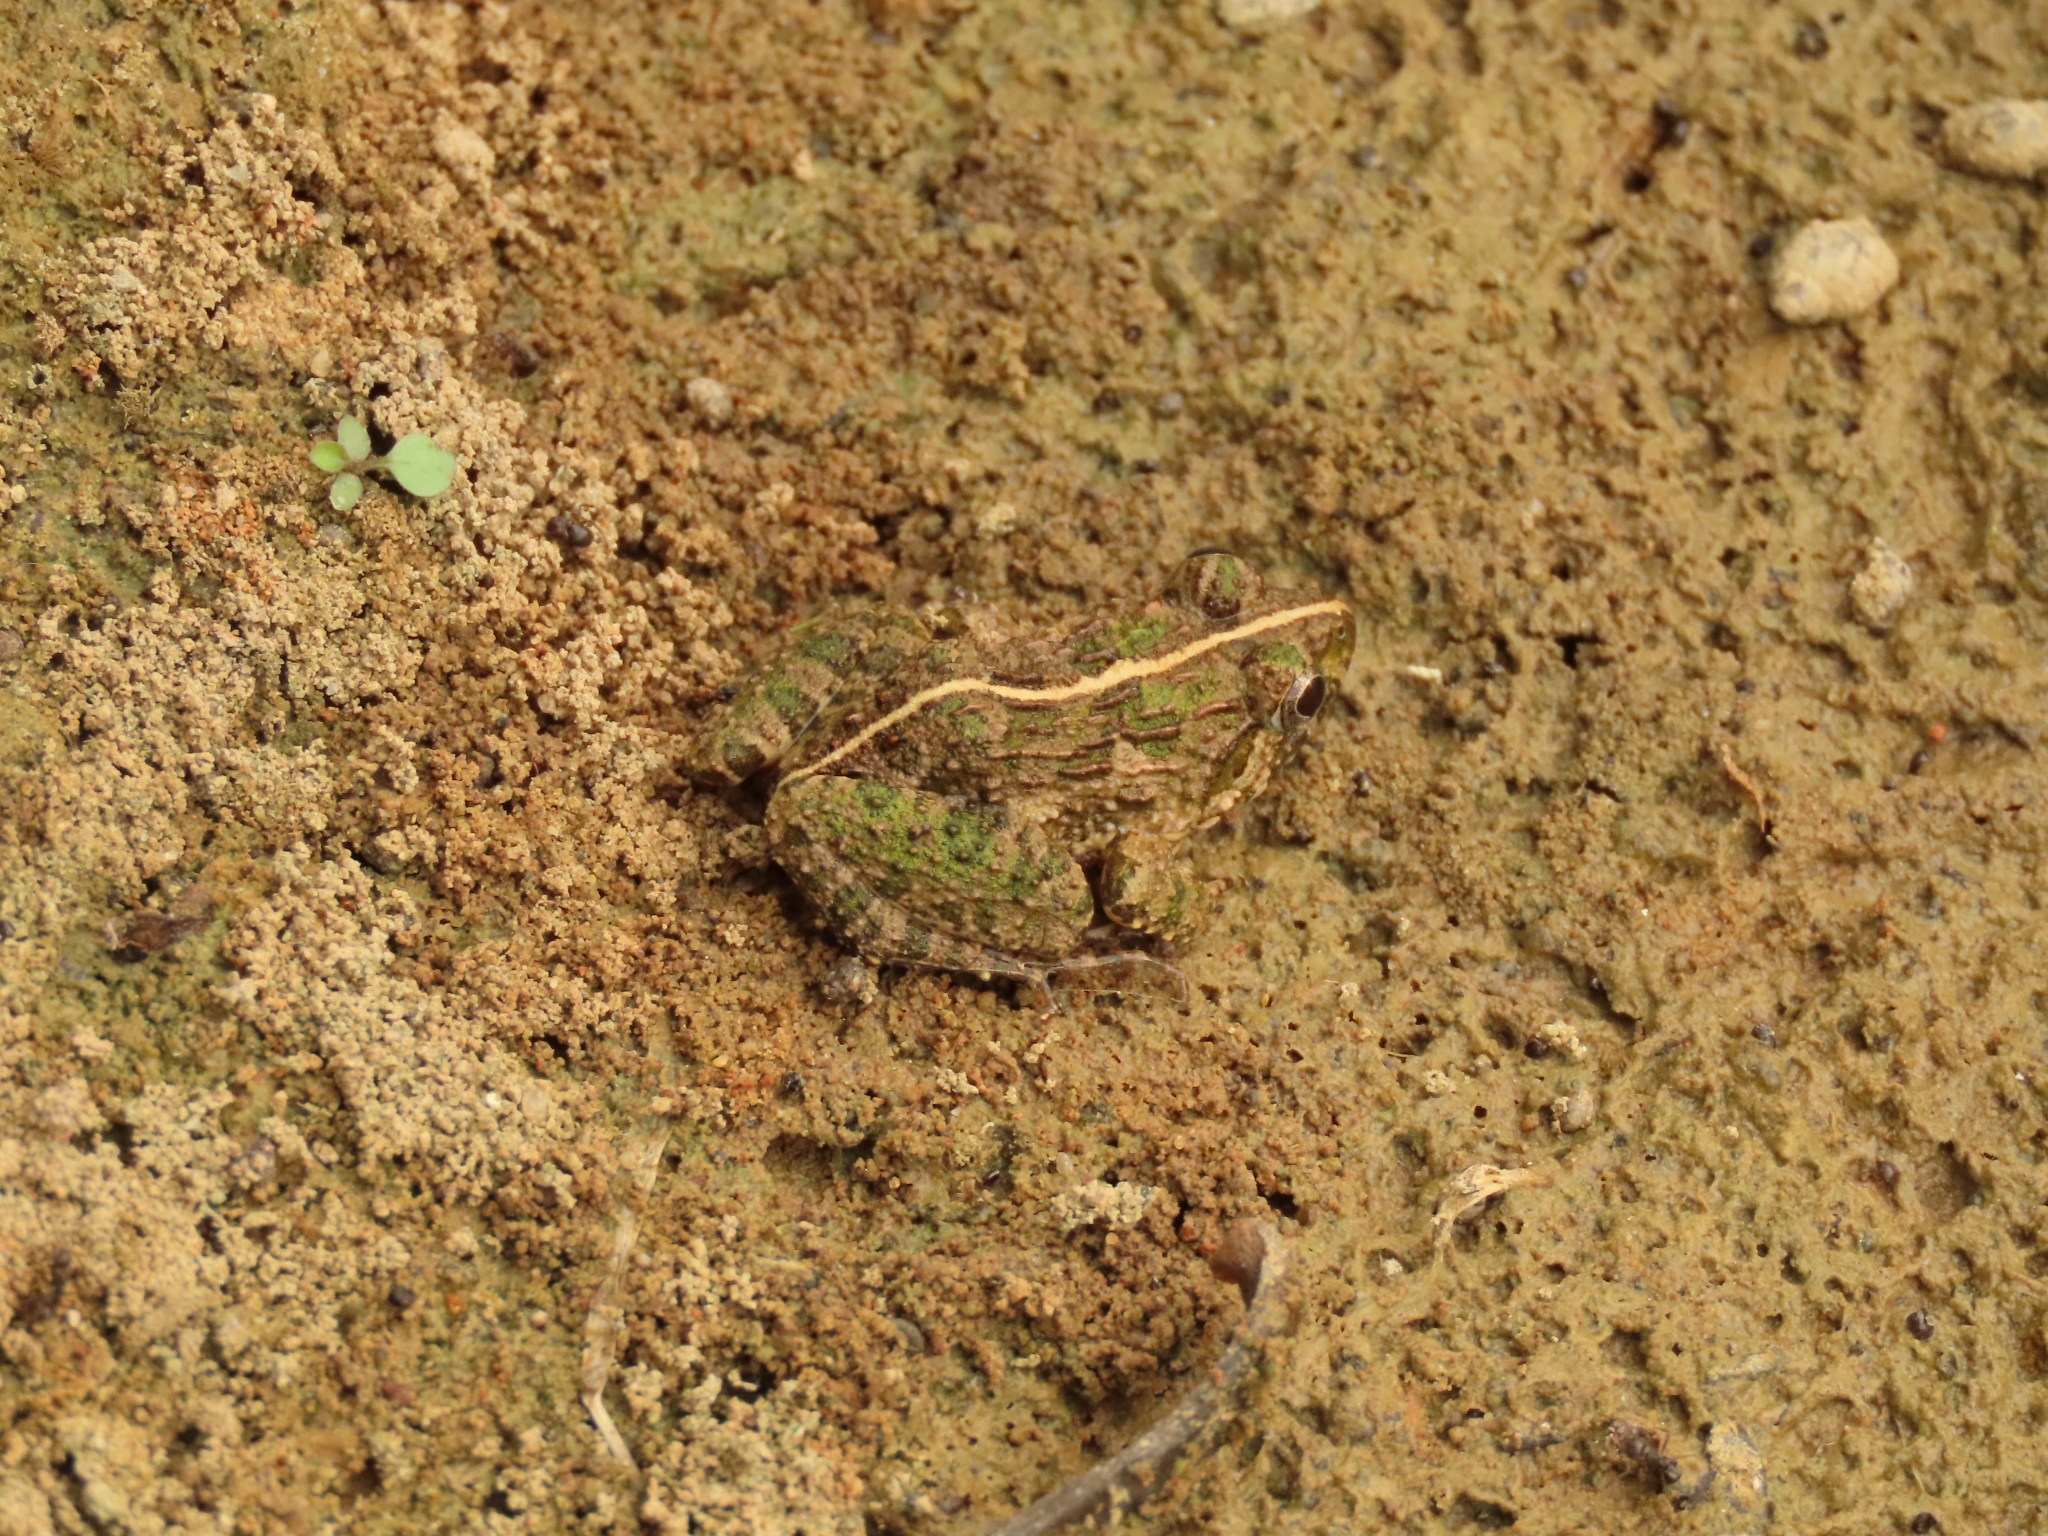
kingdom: Animalia
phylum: Chordata
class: Amphibia
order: Anura
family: Dicroglossidae
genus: Fejervarya
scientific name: Fejervarya limnocharis
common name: Asian grass frog/common pond frog/field frog/grass frog/indian rice frog
